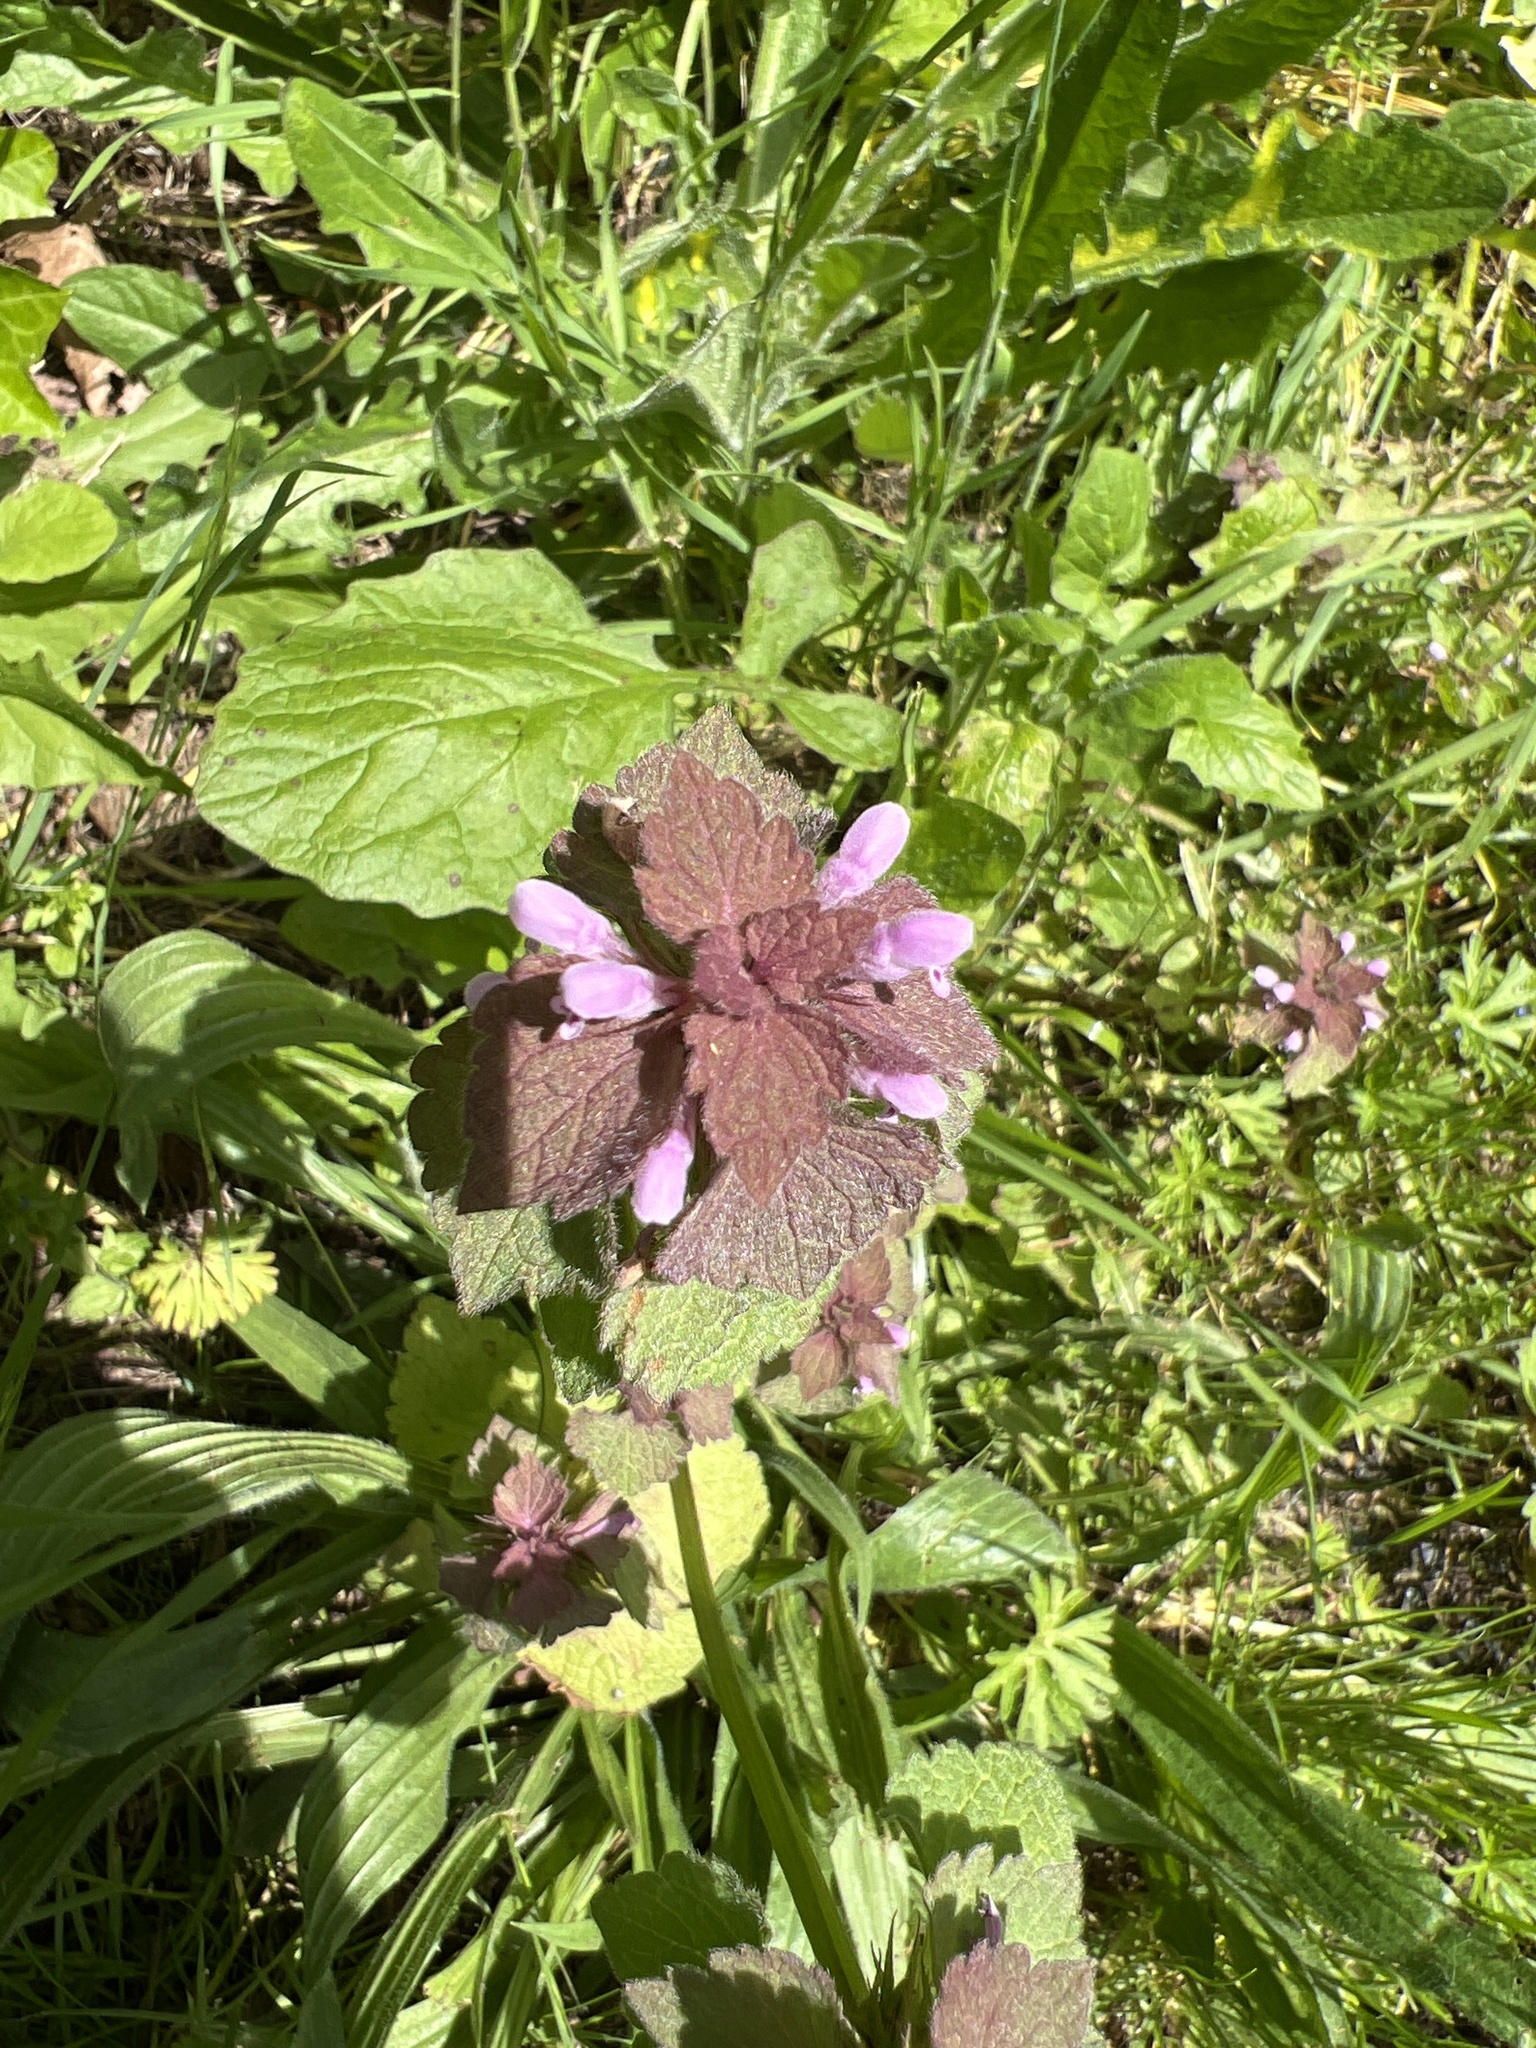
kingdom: Plantae
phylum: Tracheophyta
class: Magnoliopsida
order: Lamiales
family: Lamiaceae
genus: Lamium
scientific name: Lamium purpureum
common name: Red dead-nettle
